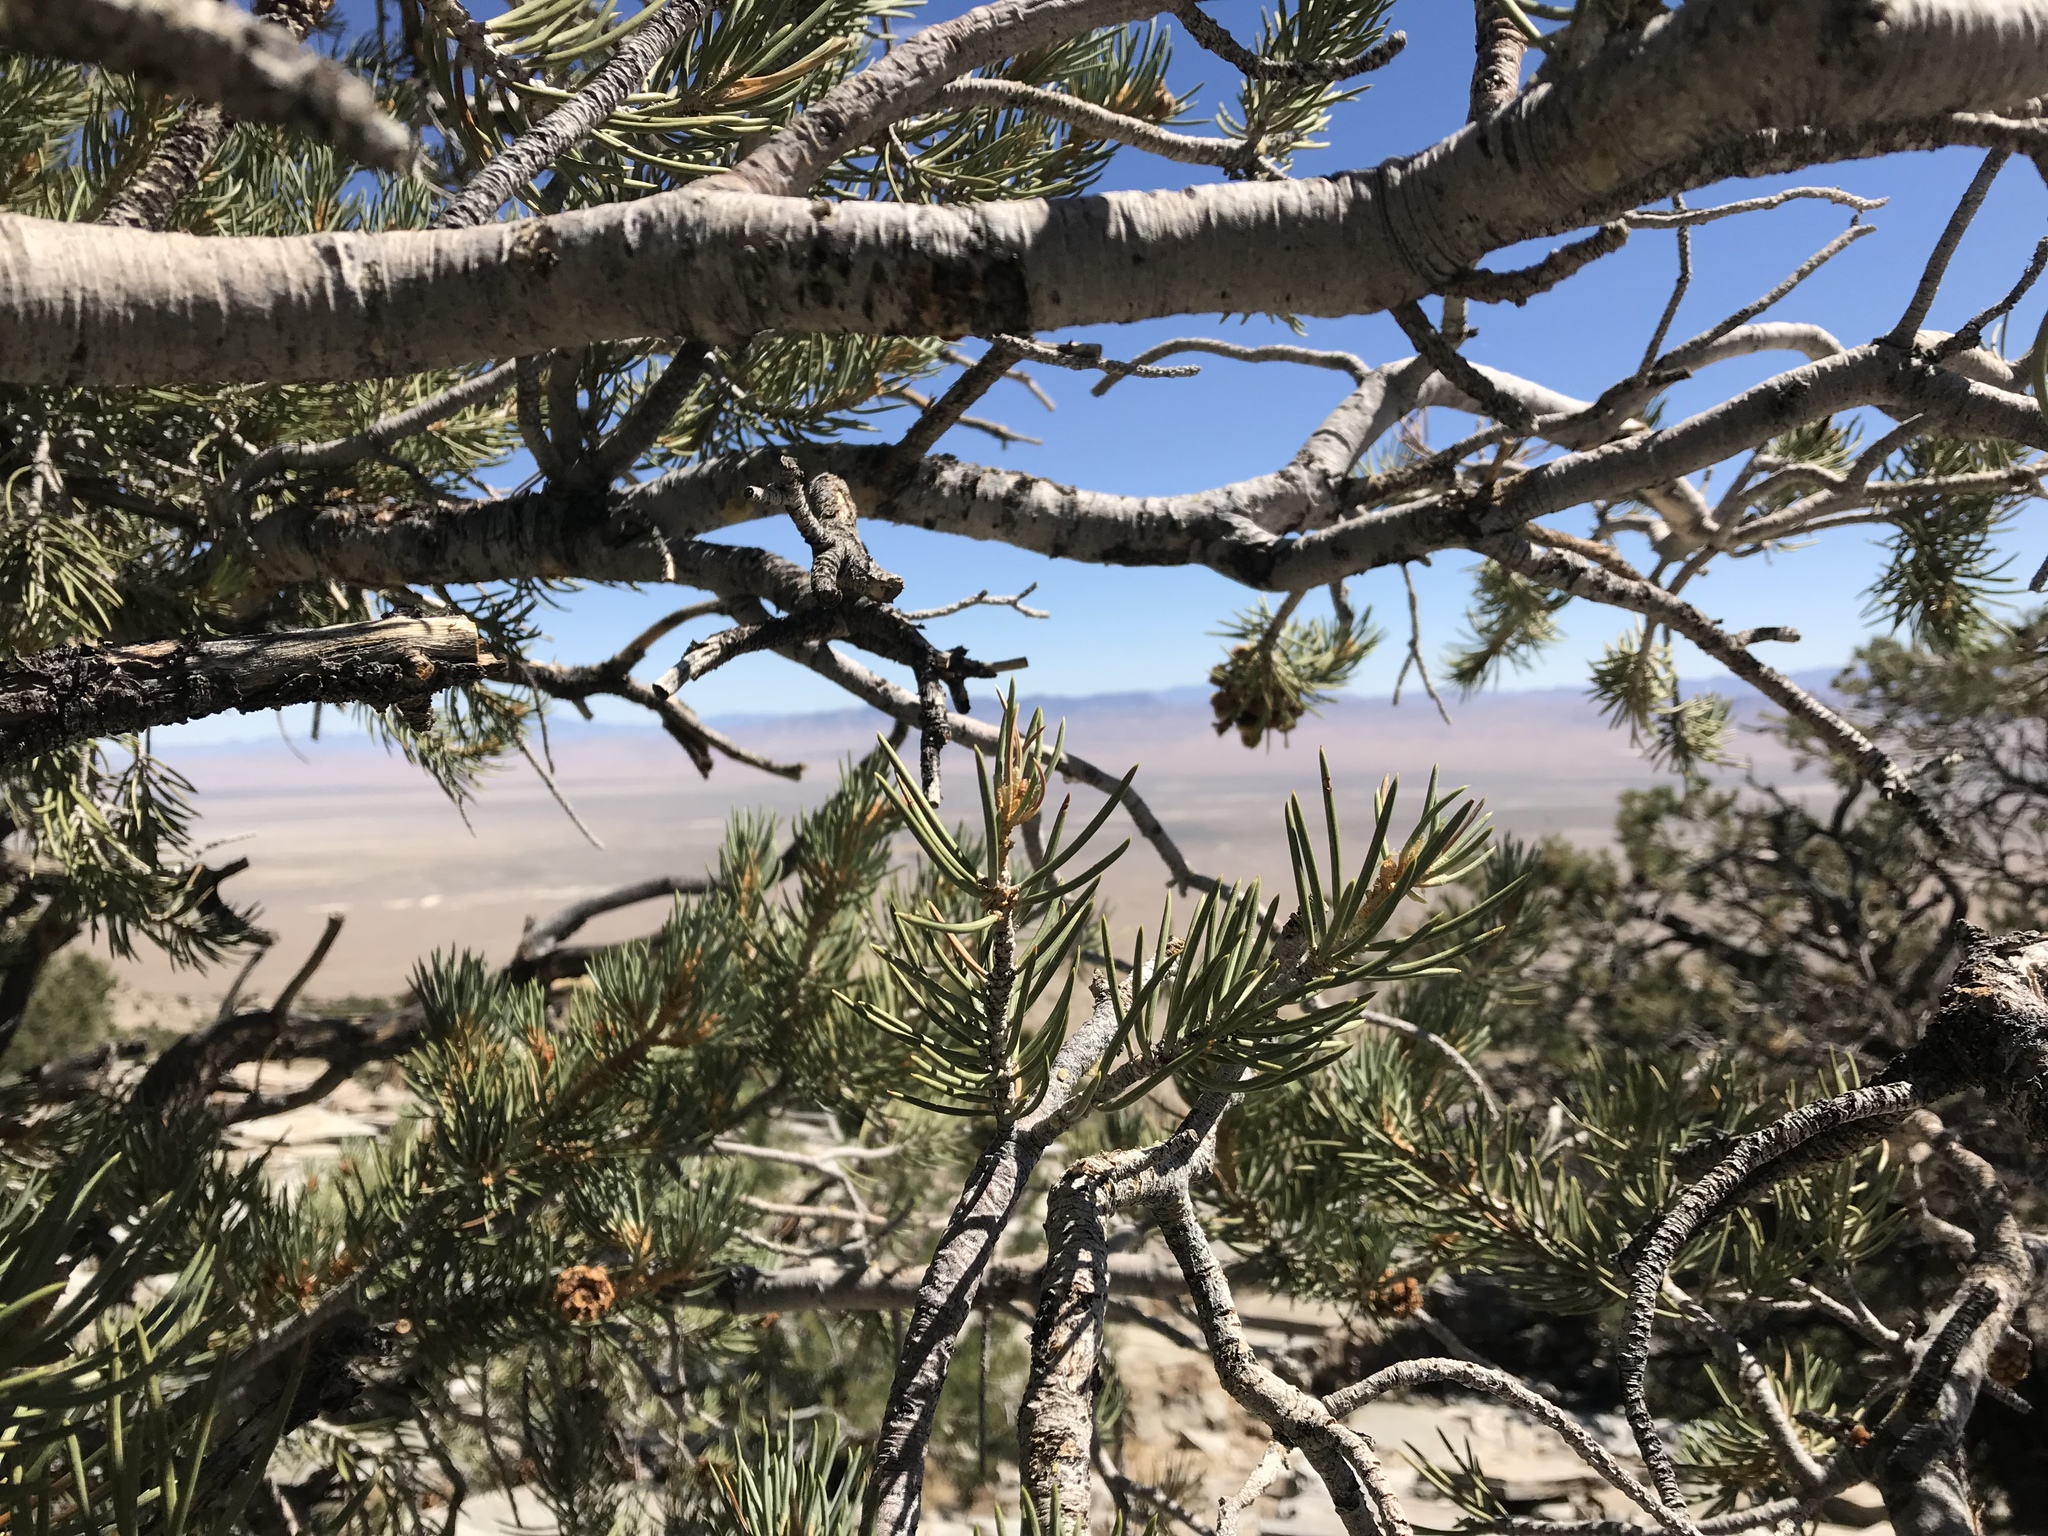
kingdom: Plantae
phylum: Tracheophyta
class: Pinopsida
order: Pinales
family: Pinaceae
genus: Pinus
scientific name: Pinus monophylla
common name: One-leaved nut pine
